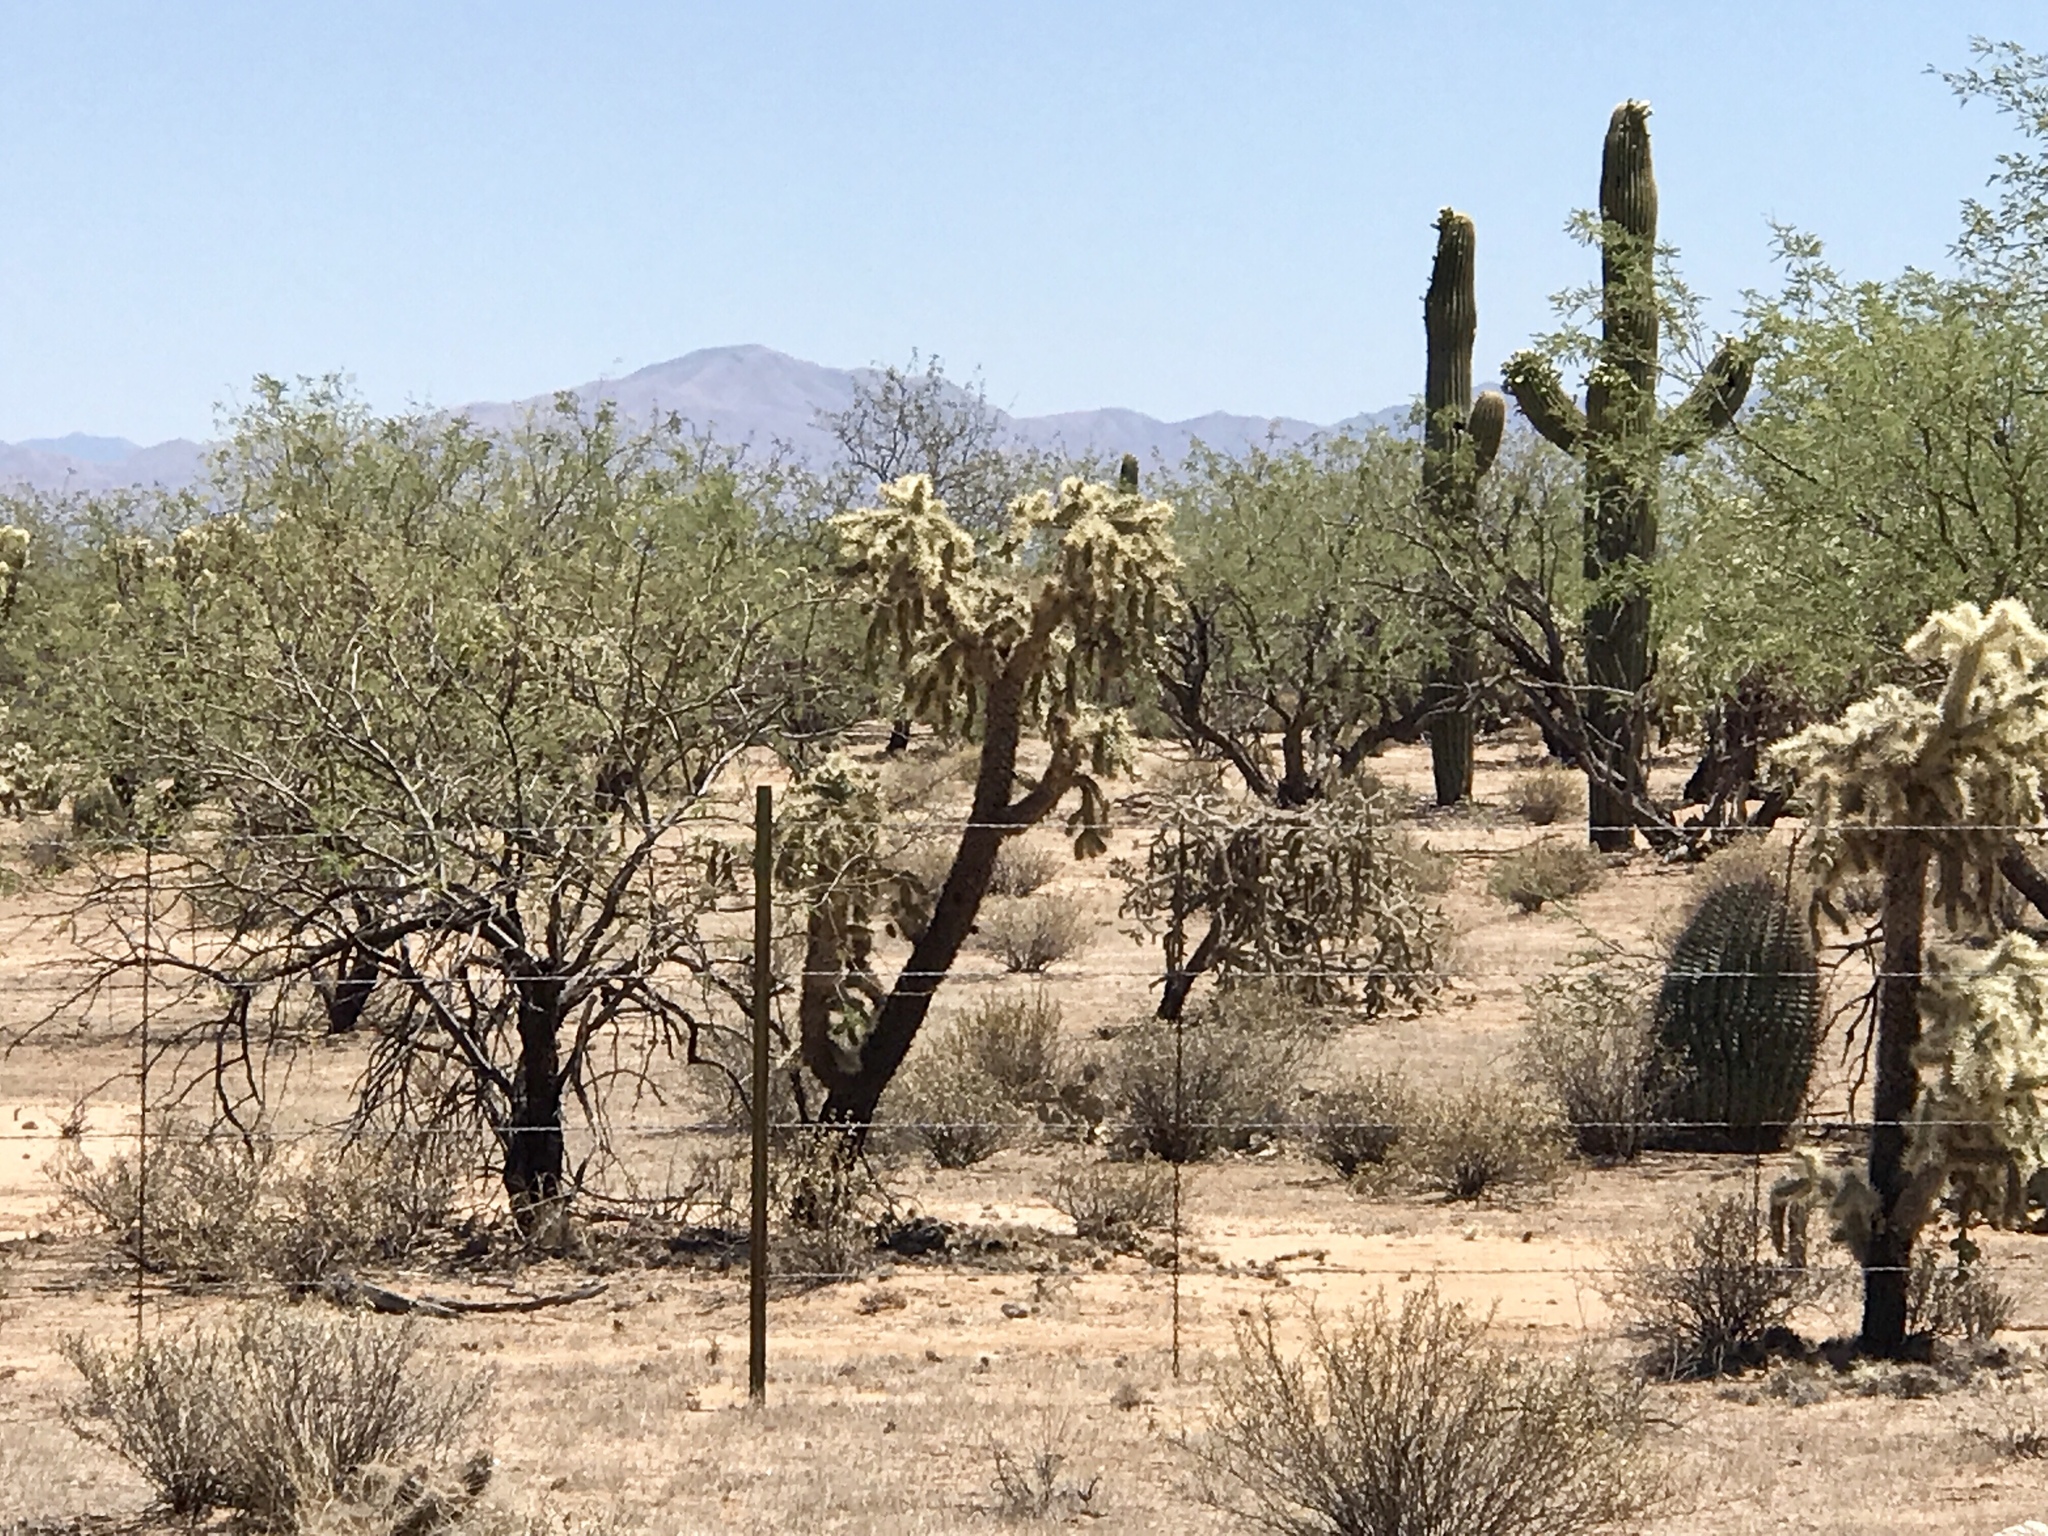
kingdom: Plantae
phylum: Tracheophyta
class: Magnoliopsida
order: Caryophyllales
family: Cactaceae
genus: Carnegiea
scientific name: Carnegiea gigantea
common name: Saguaro
